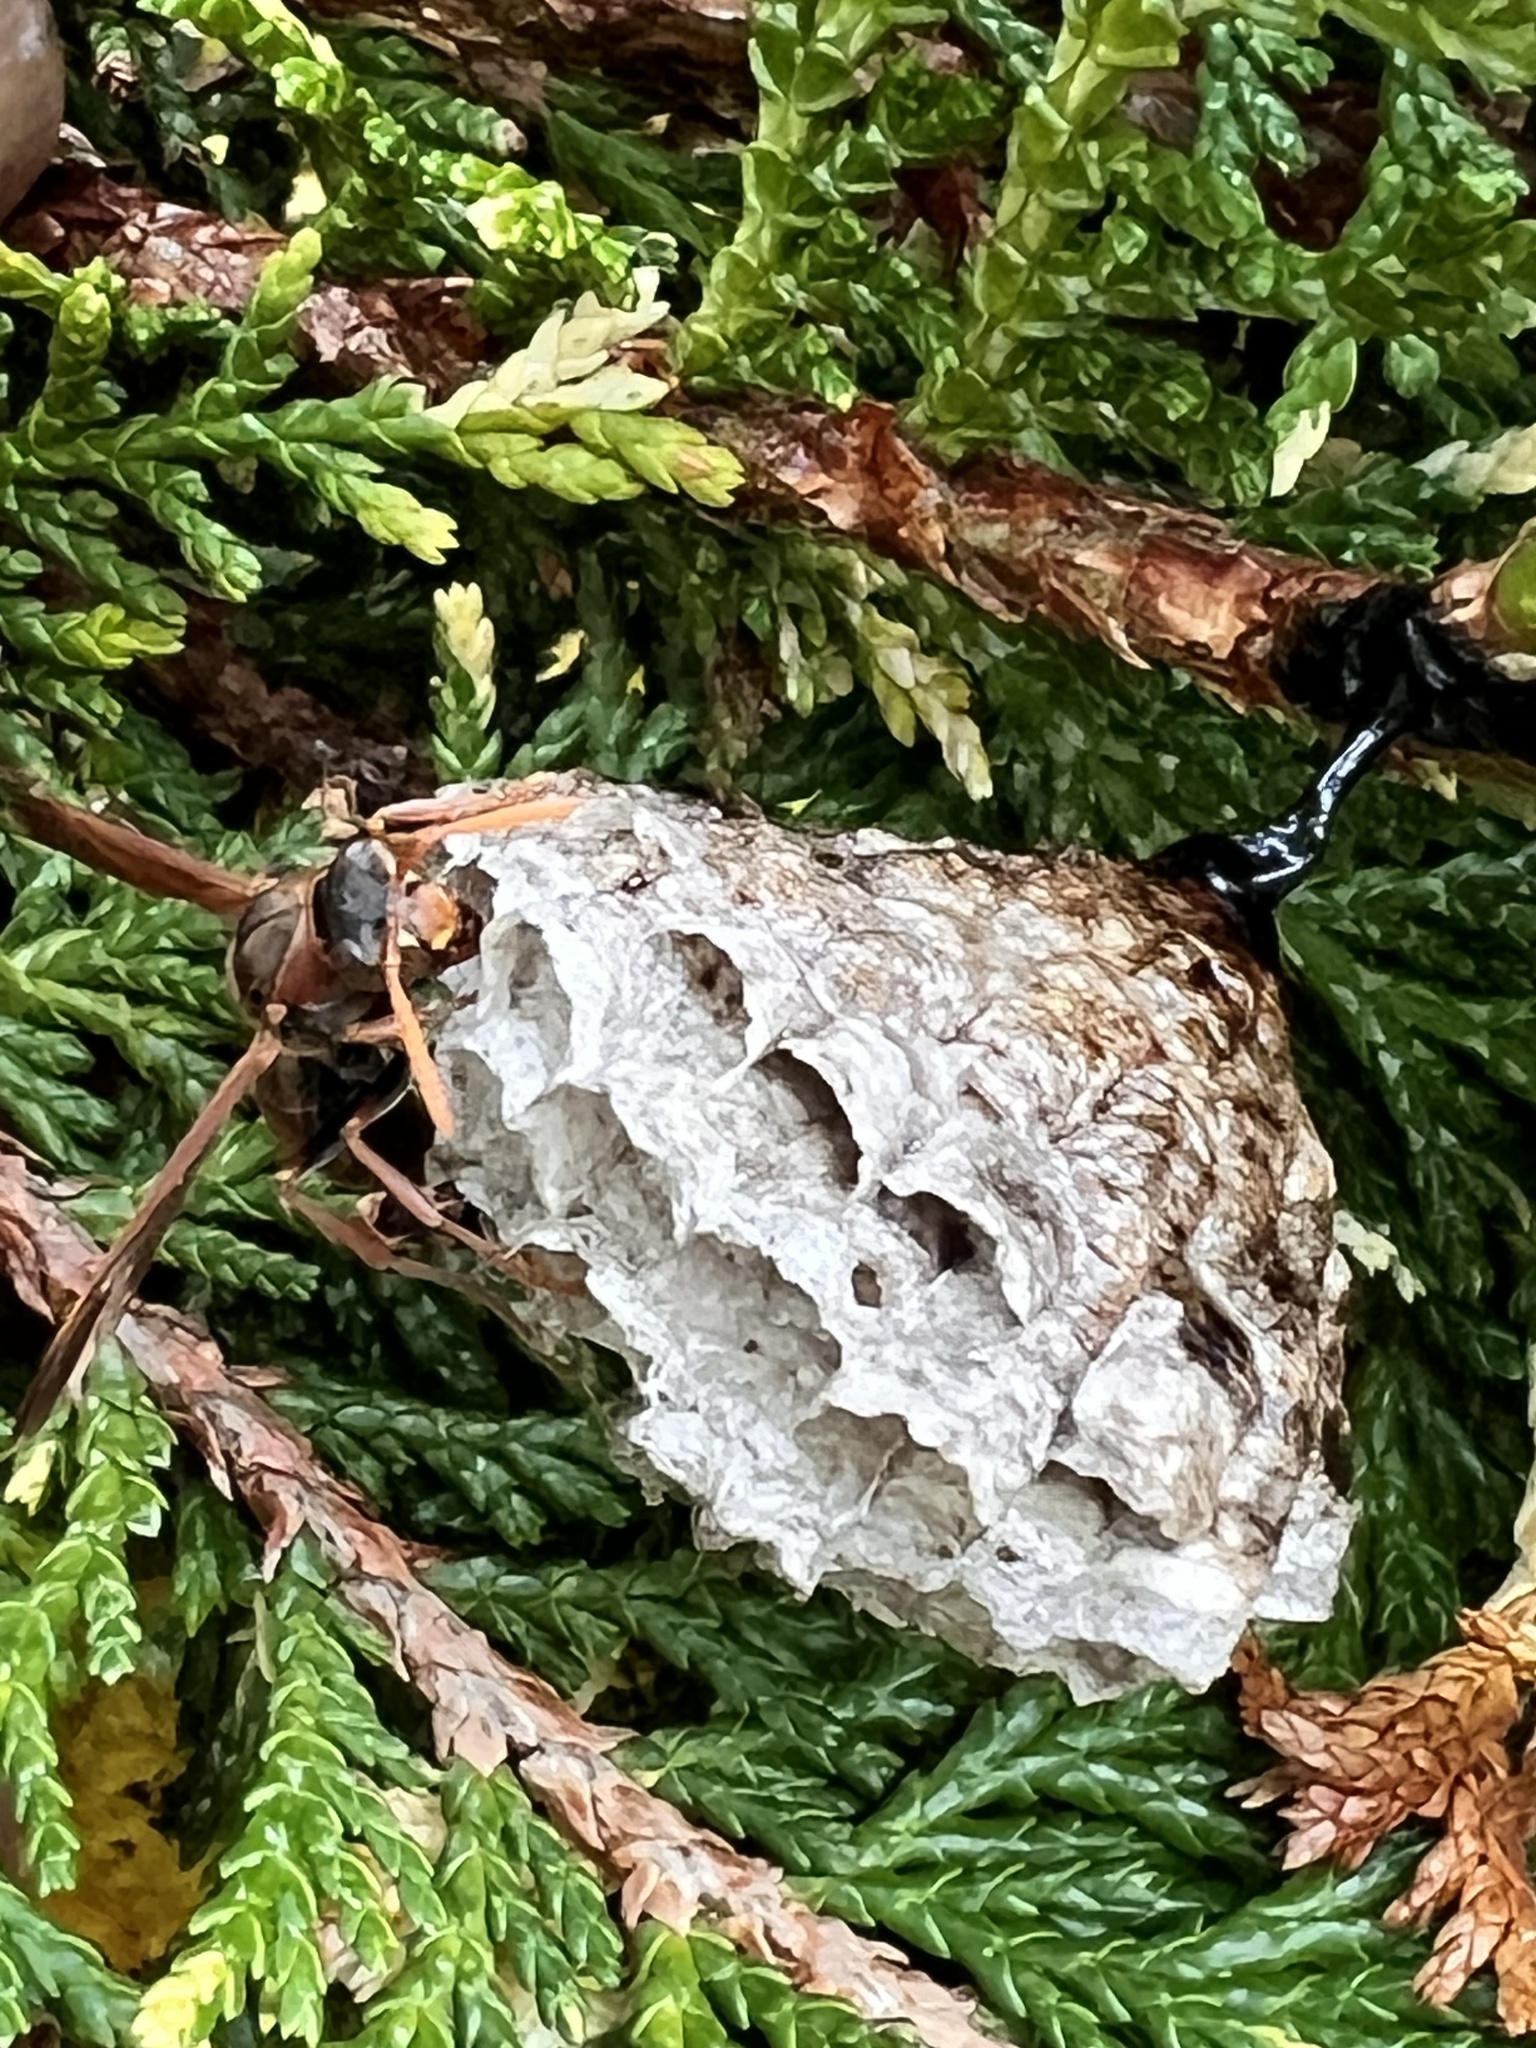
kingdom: Animalia
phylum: Arthropoda
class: Insecta
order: Hymenoptera
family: Eumenidae
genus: Polistes
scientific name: Polistes humilis
